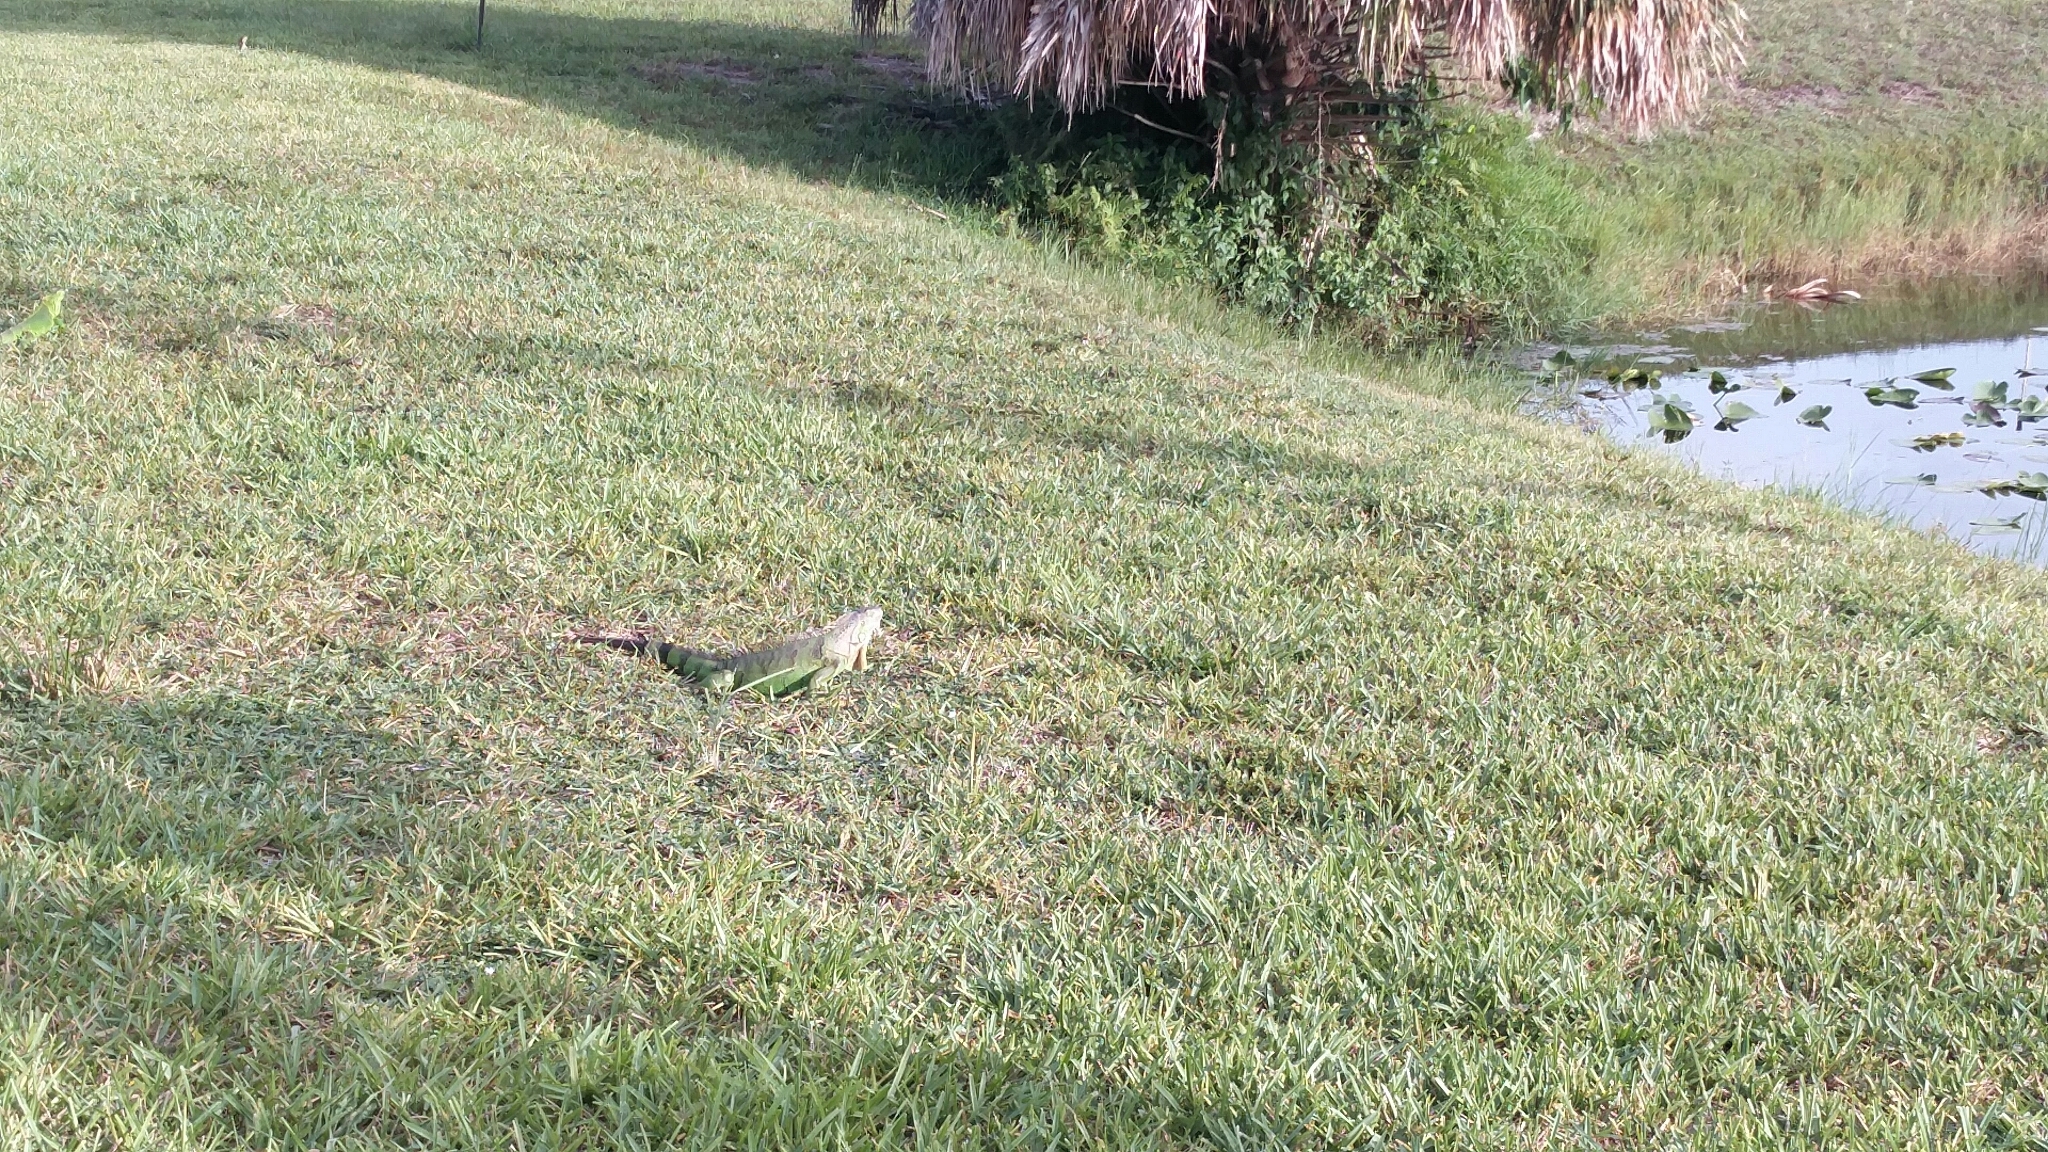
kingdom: Animalia
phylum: Chordata
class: Squamata
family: Iguanidae
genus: Iguana
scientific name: Iguana iguana
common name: Green iguana
